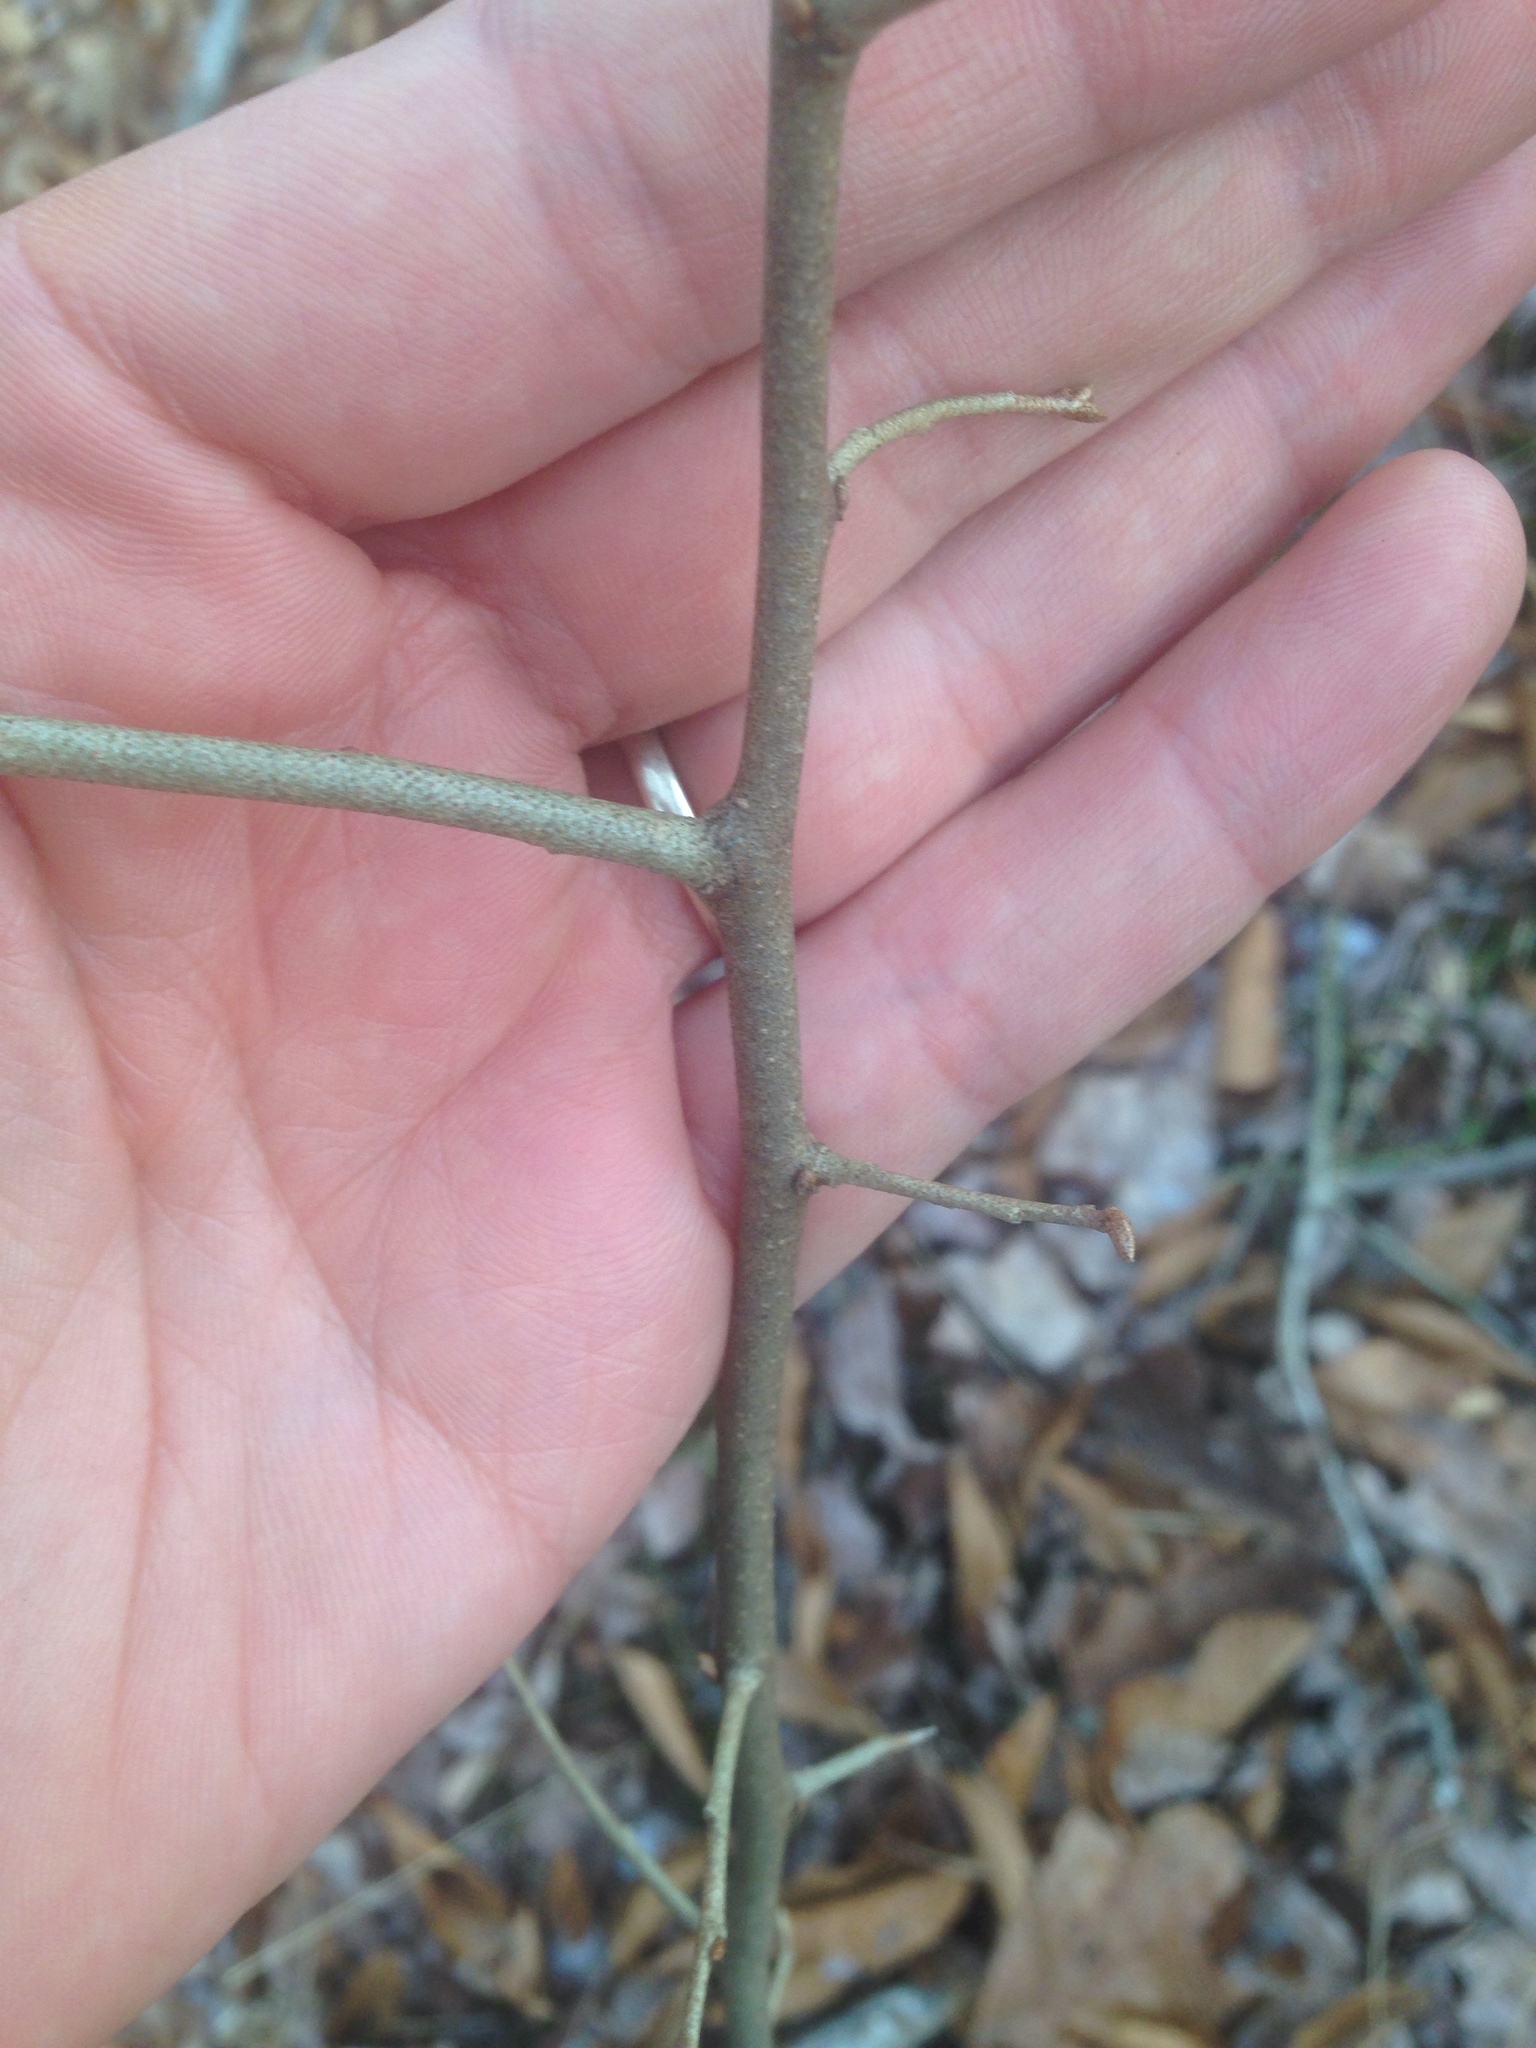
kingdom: Plantae
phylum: Tracheophyta
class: Magnoliopsida
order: Rosales
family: Elaeagnaceae
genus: Elaeagnus
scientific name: Elaeagnus umbellata
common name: Autumn olive
